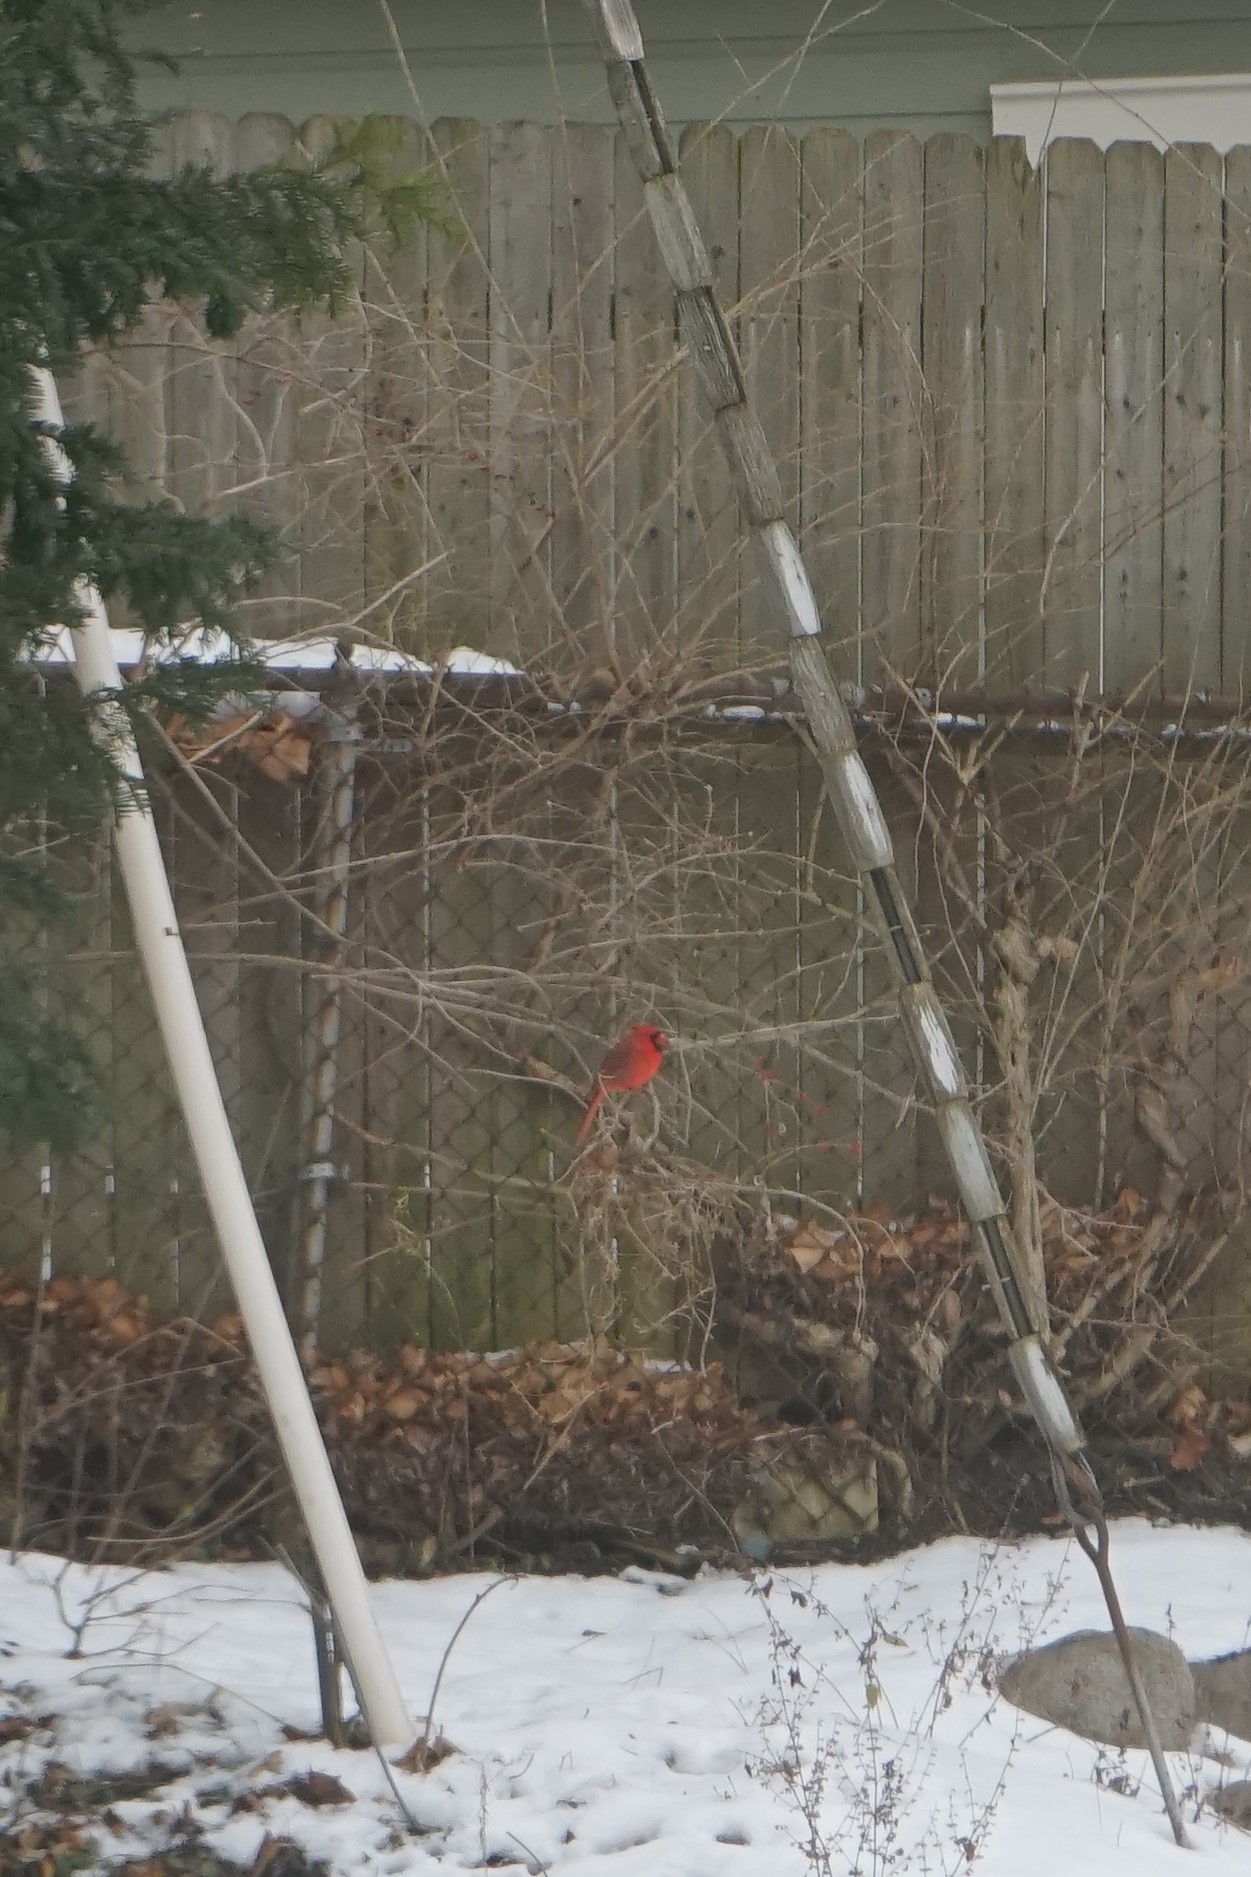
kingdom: Animalia
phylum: Chordata
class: Aves
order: Passeriformes
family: Cardinalidae
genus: Cardinalis
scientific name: Cardinalis cardinalis
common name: Northern cardinal
